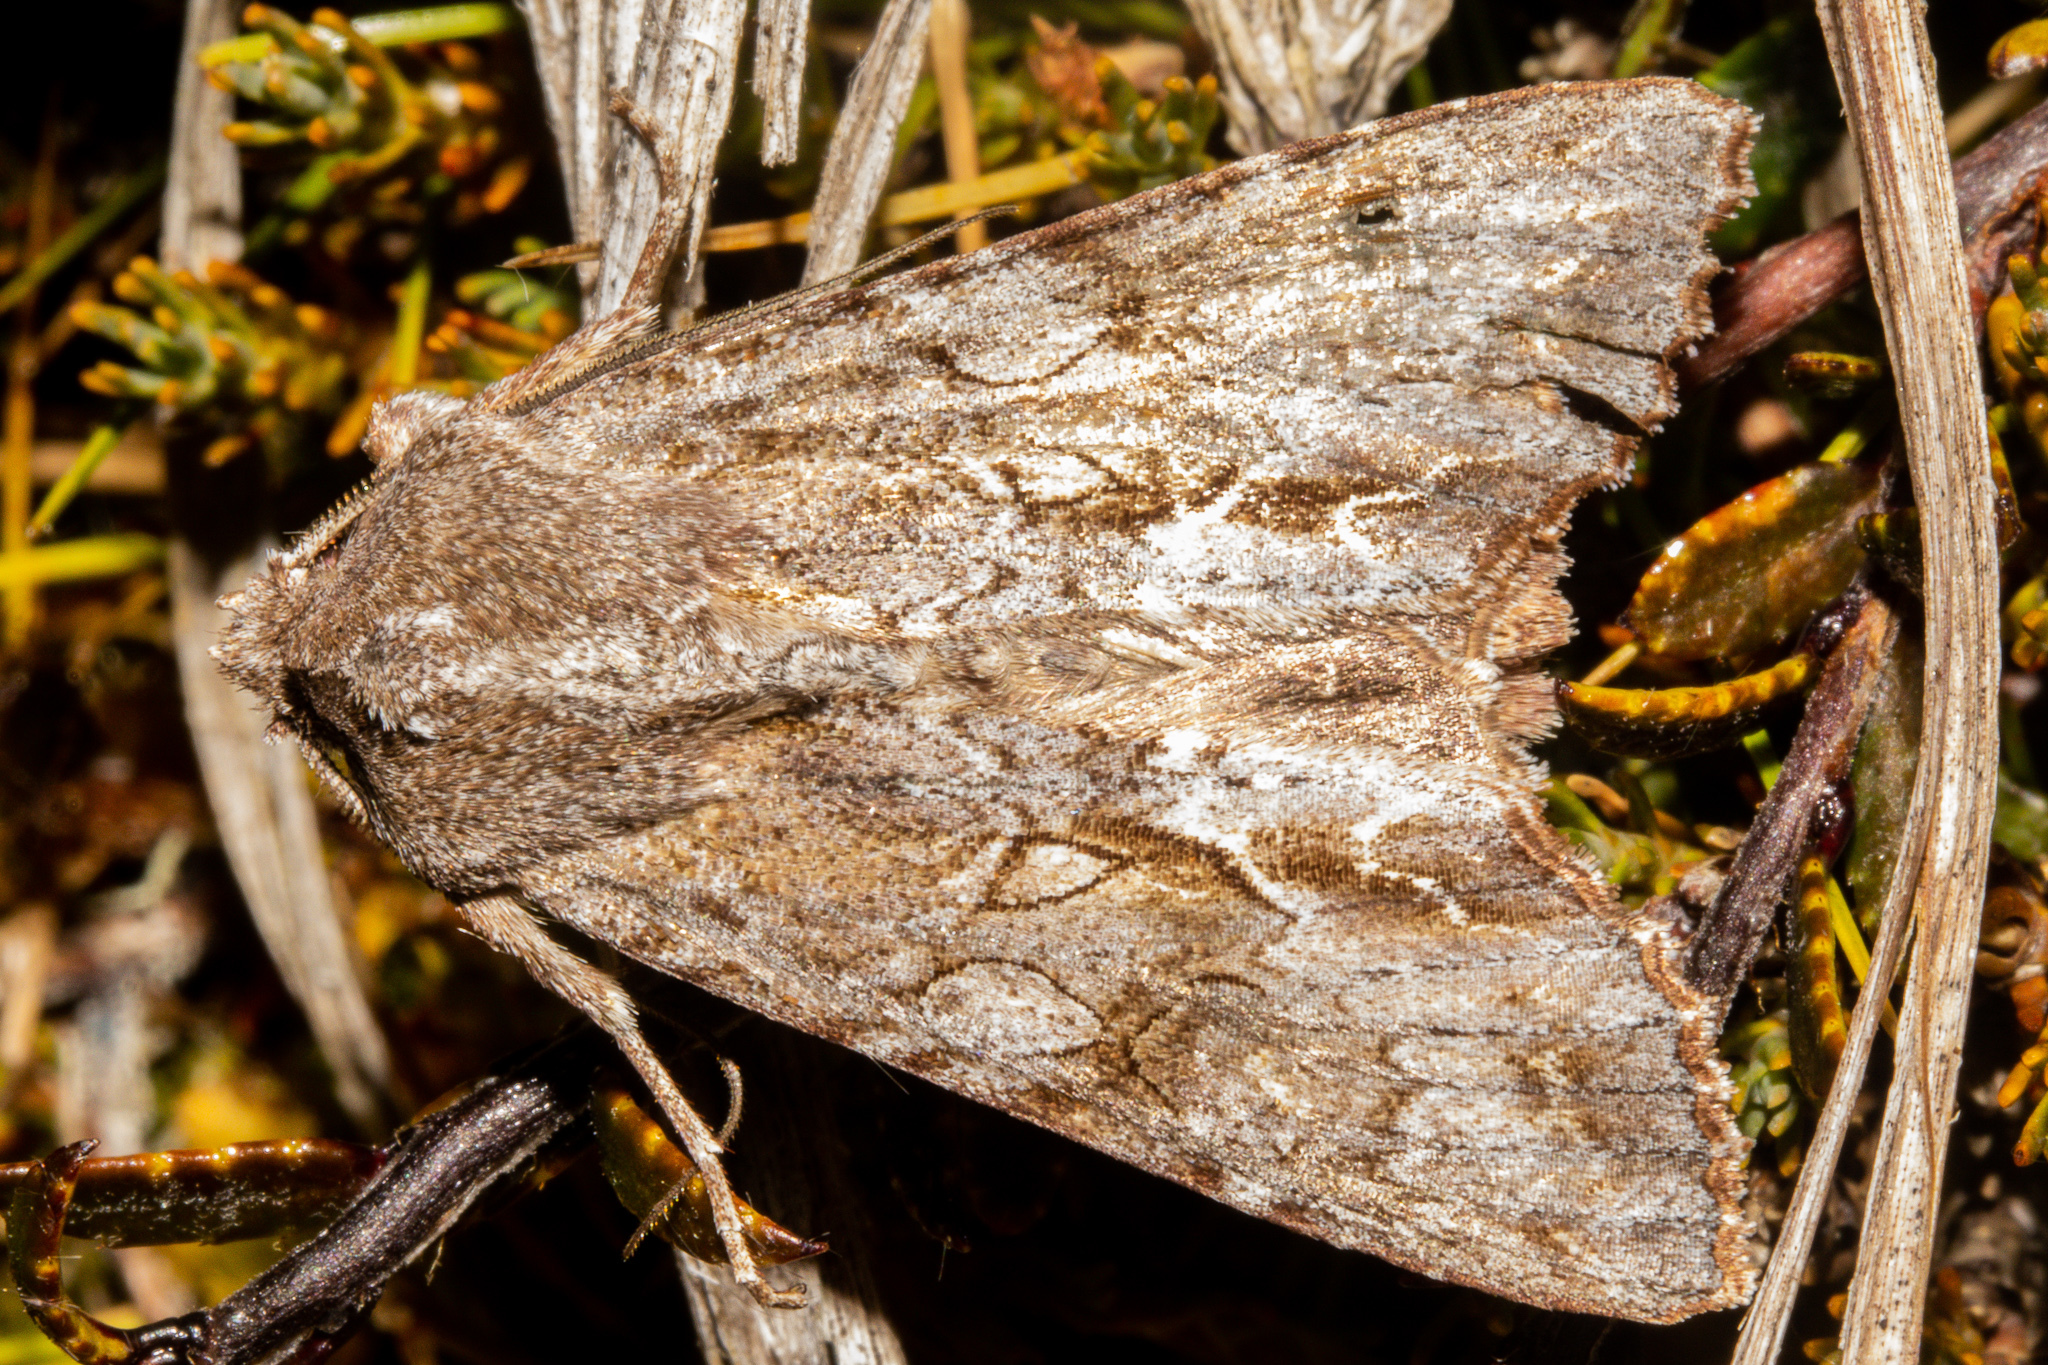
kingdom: Animalia
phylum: Arthropoda
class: Insecta
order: Lepidoptera
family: Noctuidae
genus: Ichneutica
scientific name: Ichneutica
